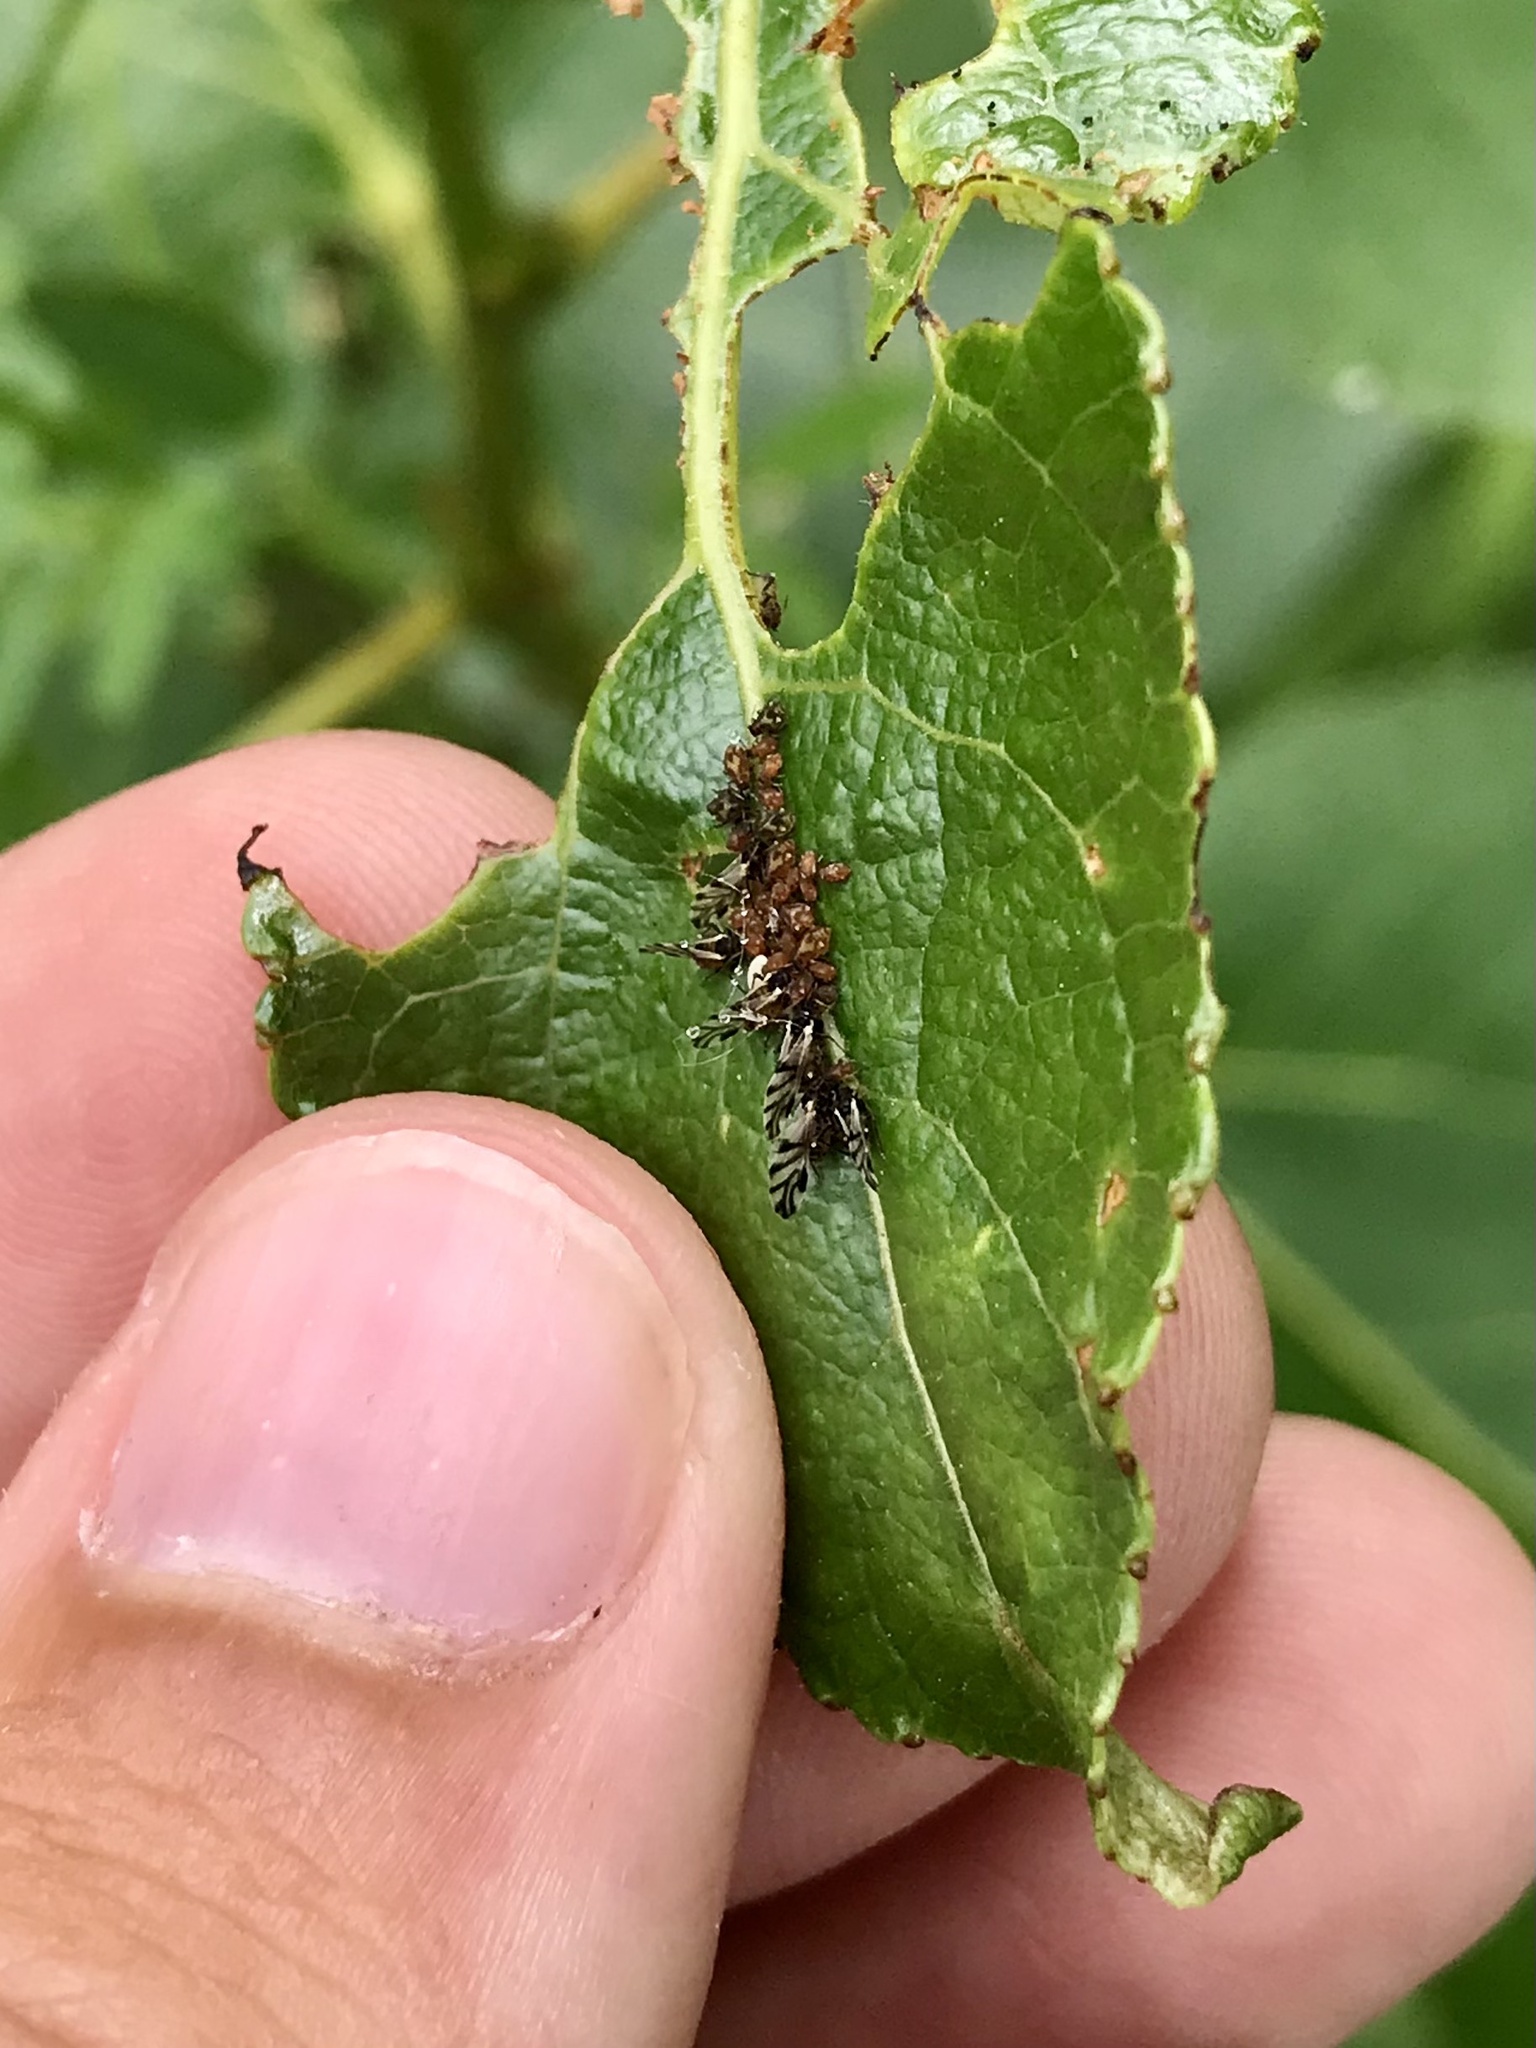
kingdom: Animalia
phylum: Arthropoda
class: Insecta
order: Hemiptera
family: Aphididae
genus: Chaitophorus
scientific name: Chaitophorus populicola
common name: Smokywinged poplar aphid
